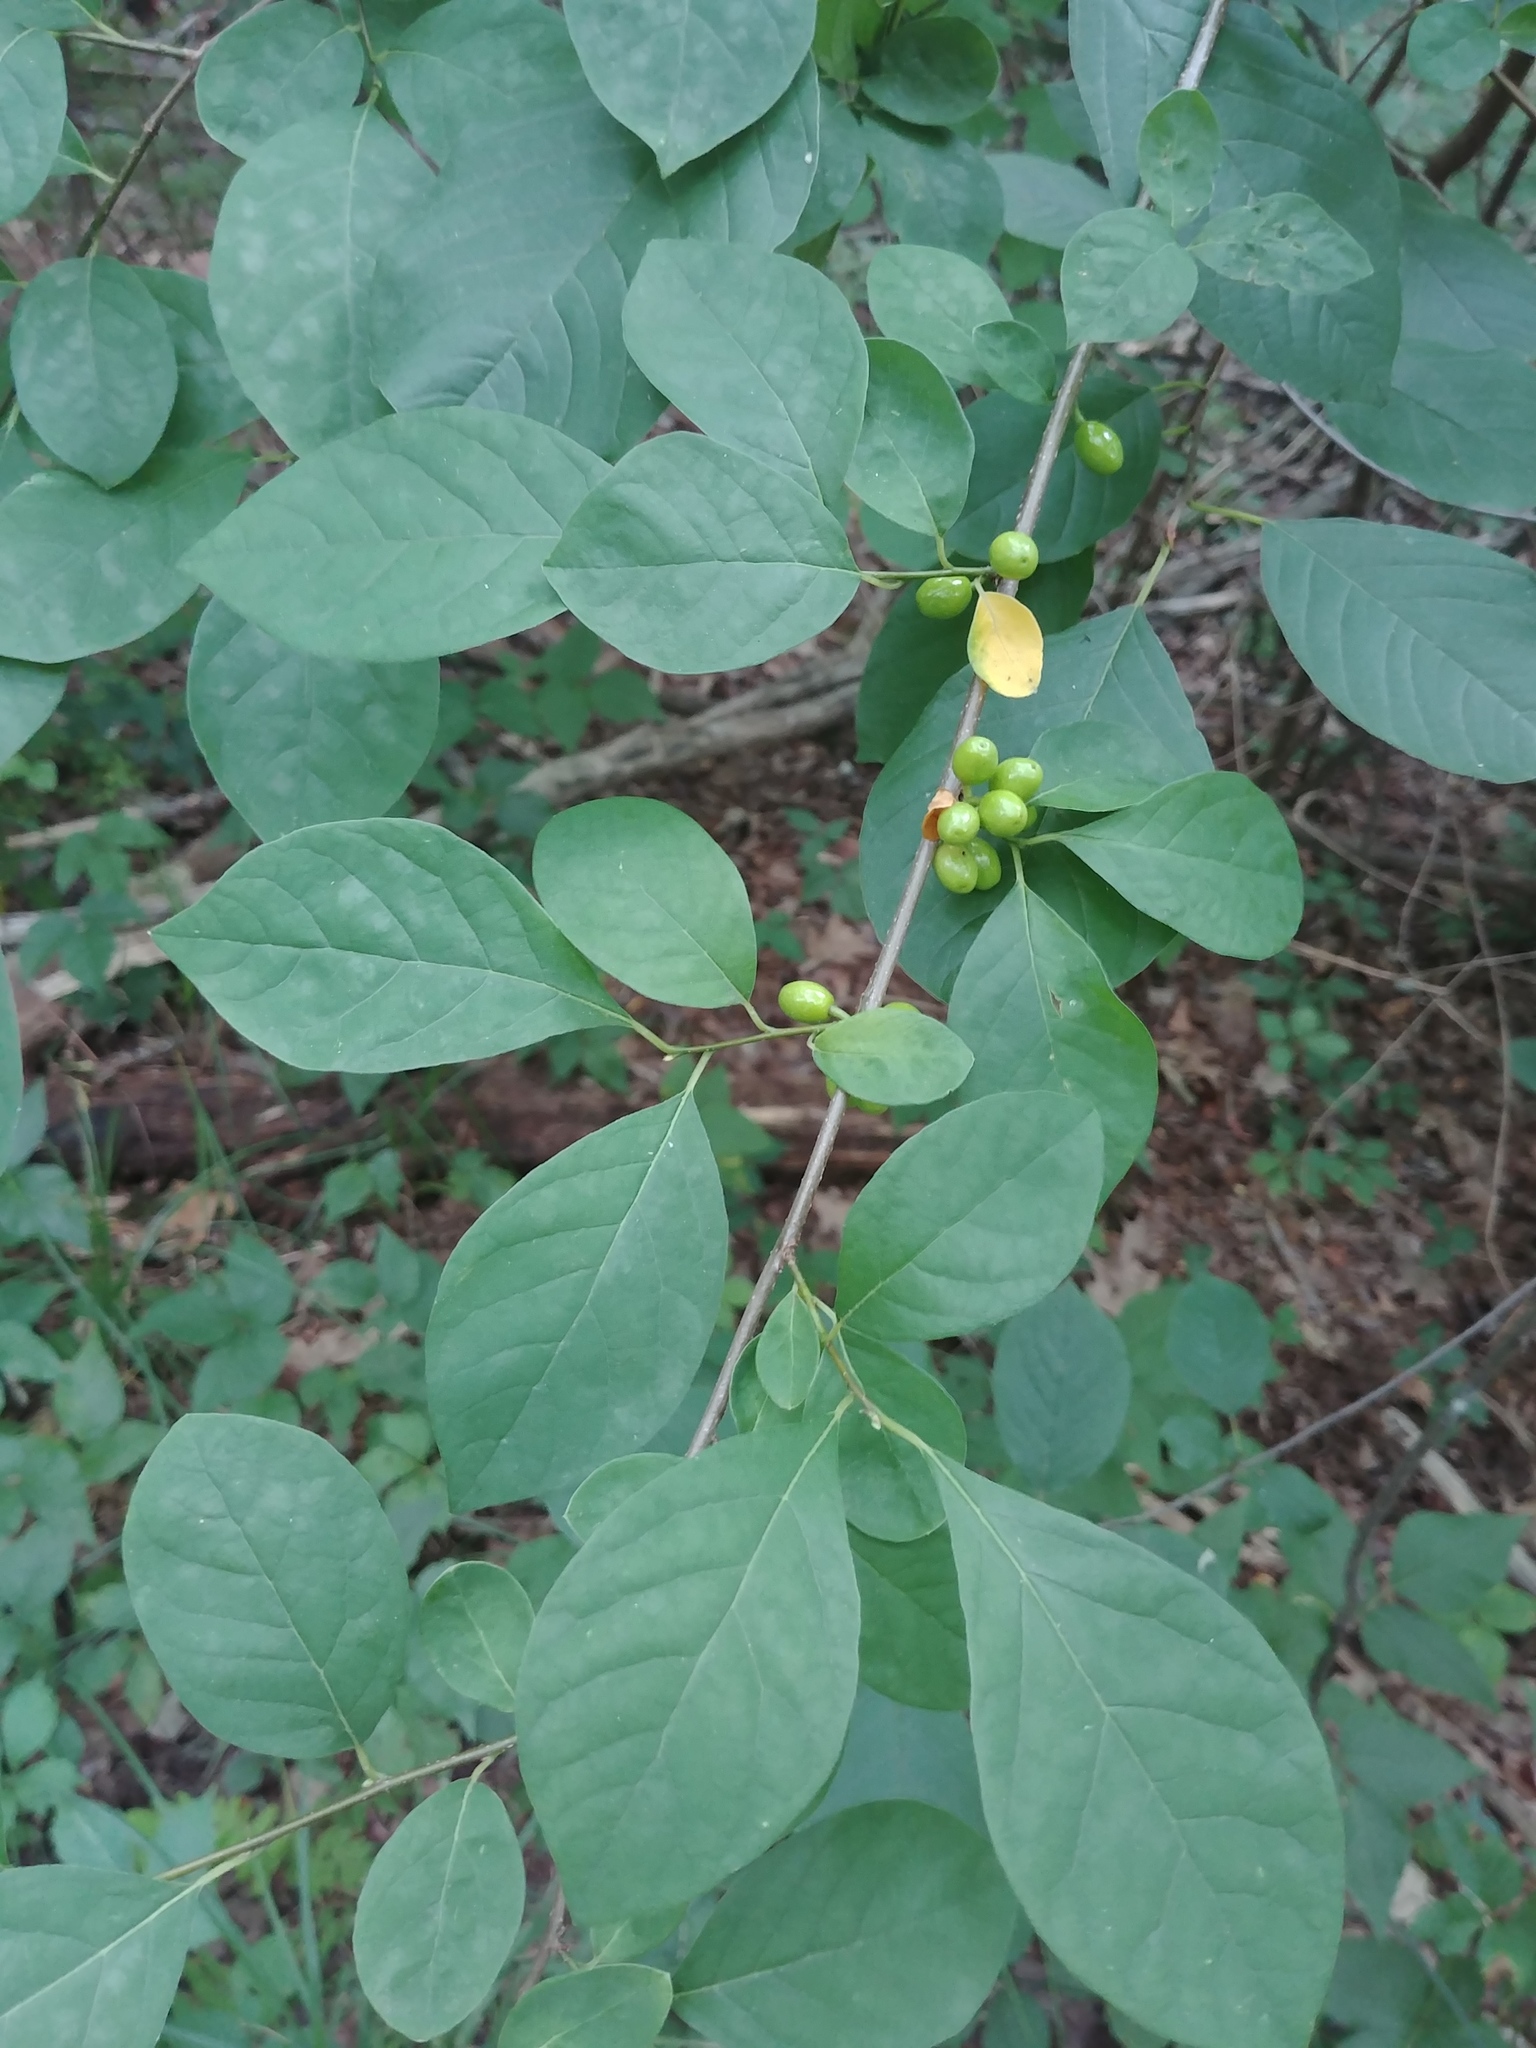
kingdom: Plantae
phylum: Tracheophyta
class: Magnoliopsida
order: Laurales
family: Lauraceae
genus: Lindera
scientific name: Lindera benzoin
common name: Spicebush
